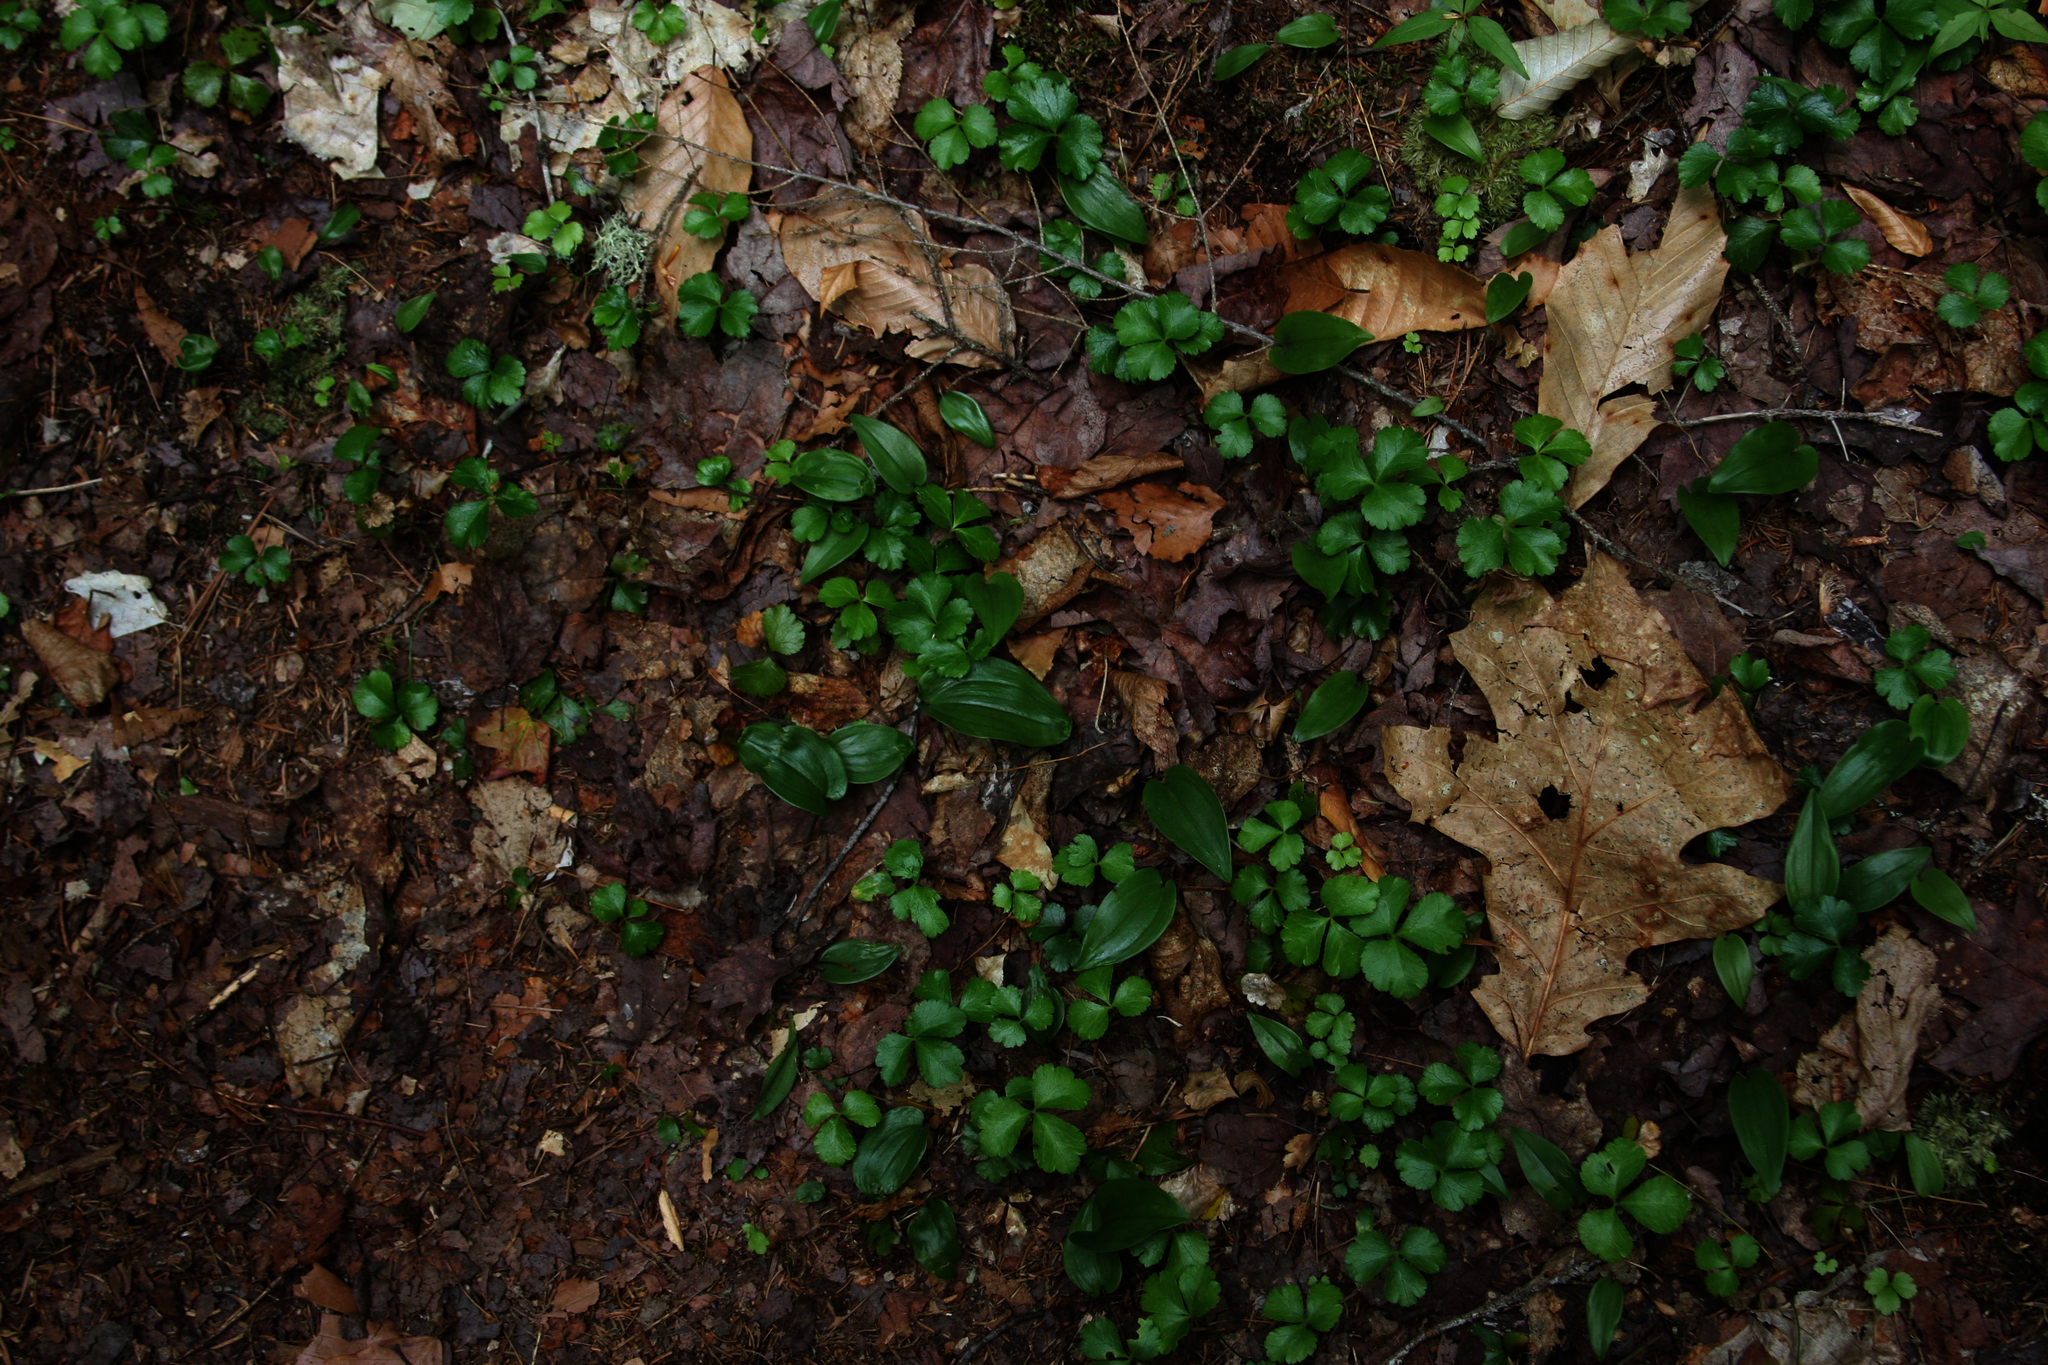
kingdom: Plantae
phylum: Tracheophyta
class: Liliopsida
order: Asparagales
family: Asparagaceae
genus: Maianthemum
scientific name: Maianthemum canadense
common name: False lily-of-the-valley
